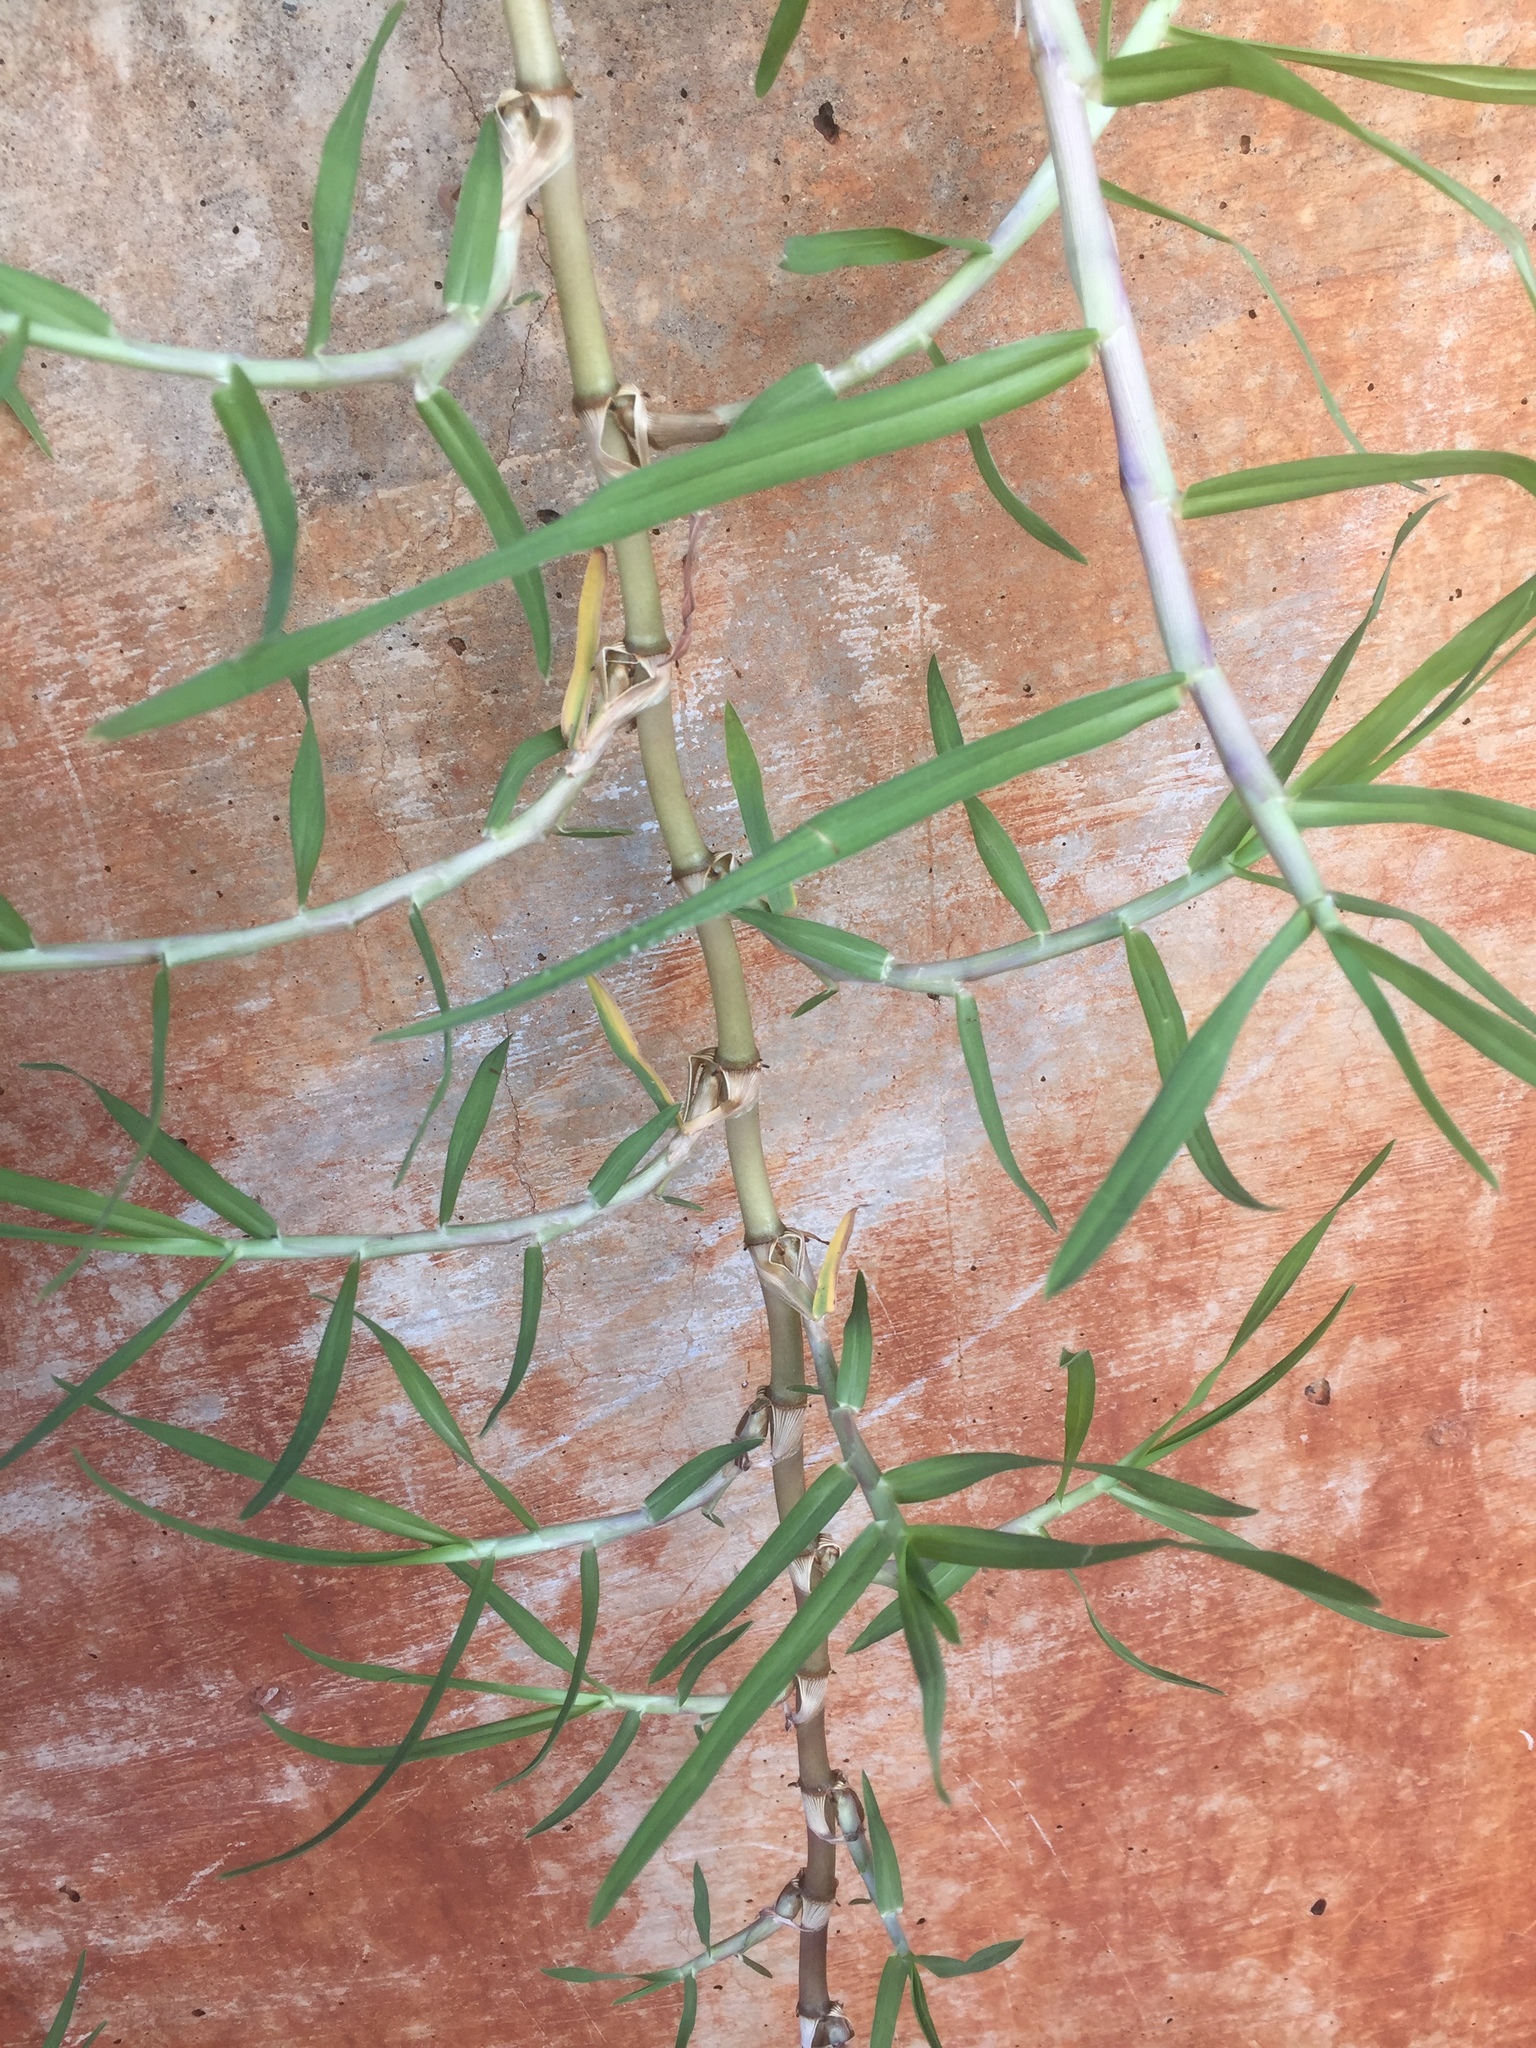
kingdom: Plantae
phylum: Tracheophyta
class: Liliopsida
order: Poales
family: Poaceae
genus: Cynodon
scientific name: Cynodon dactylon
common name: Bermuda grass
